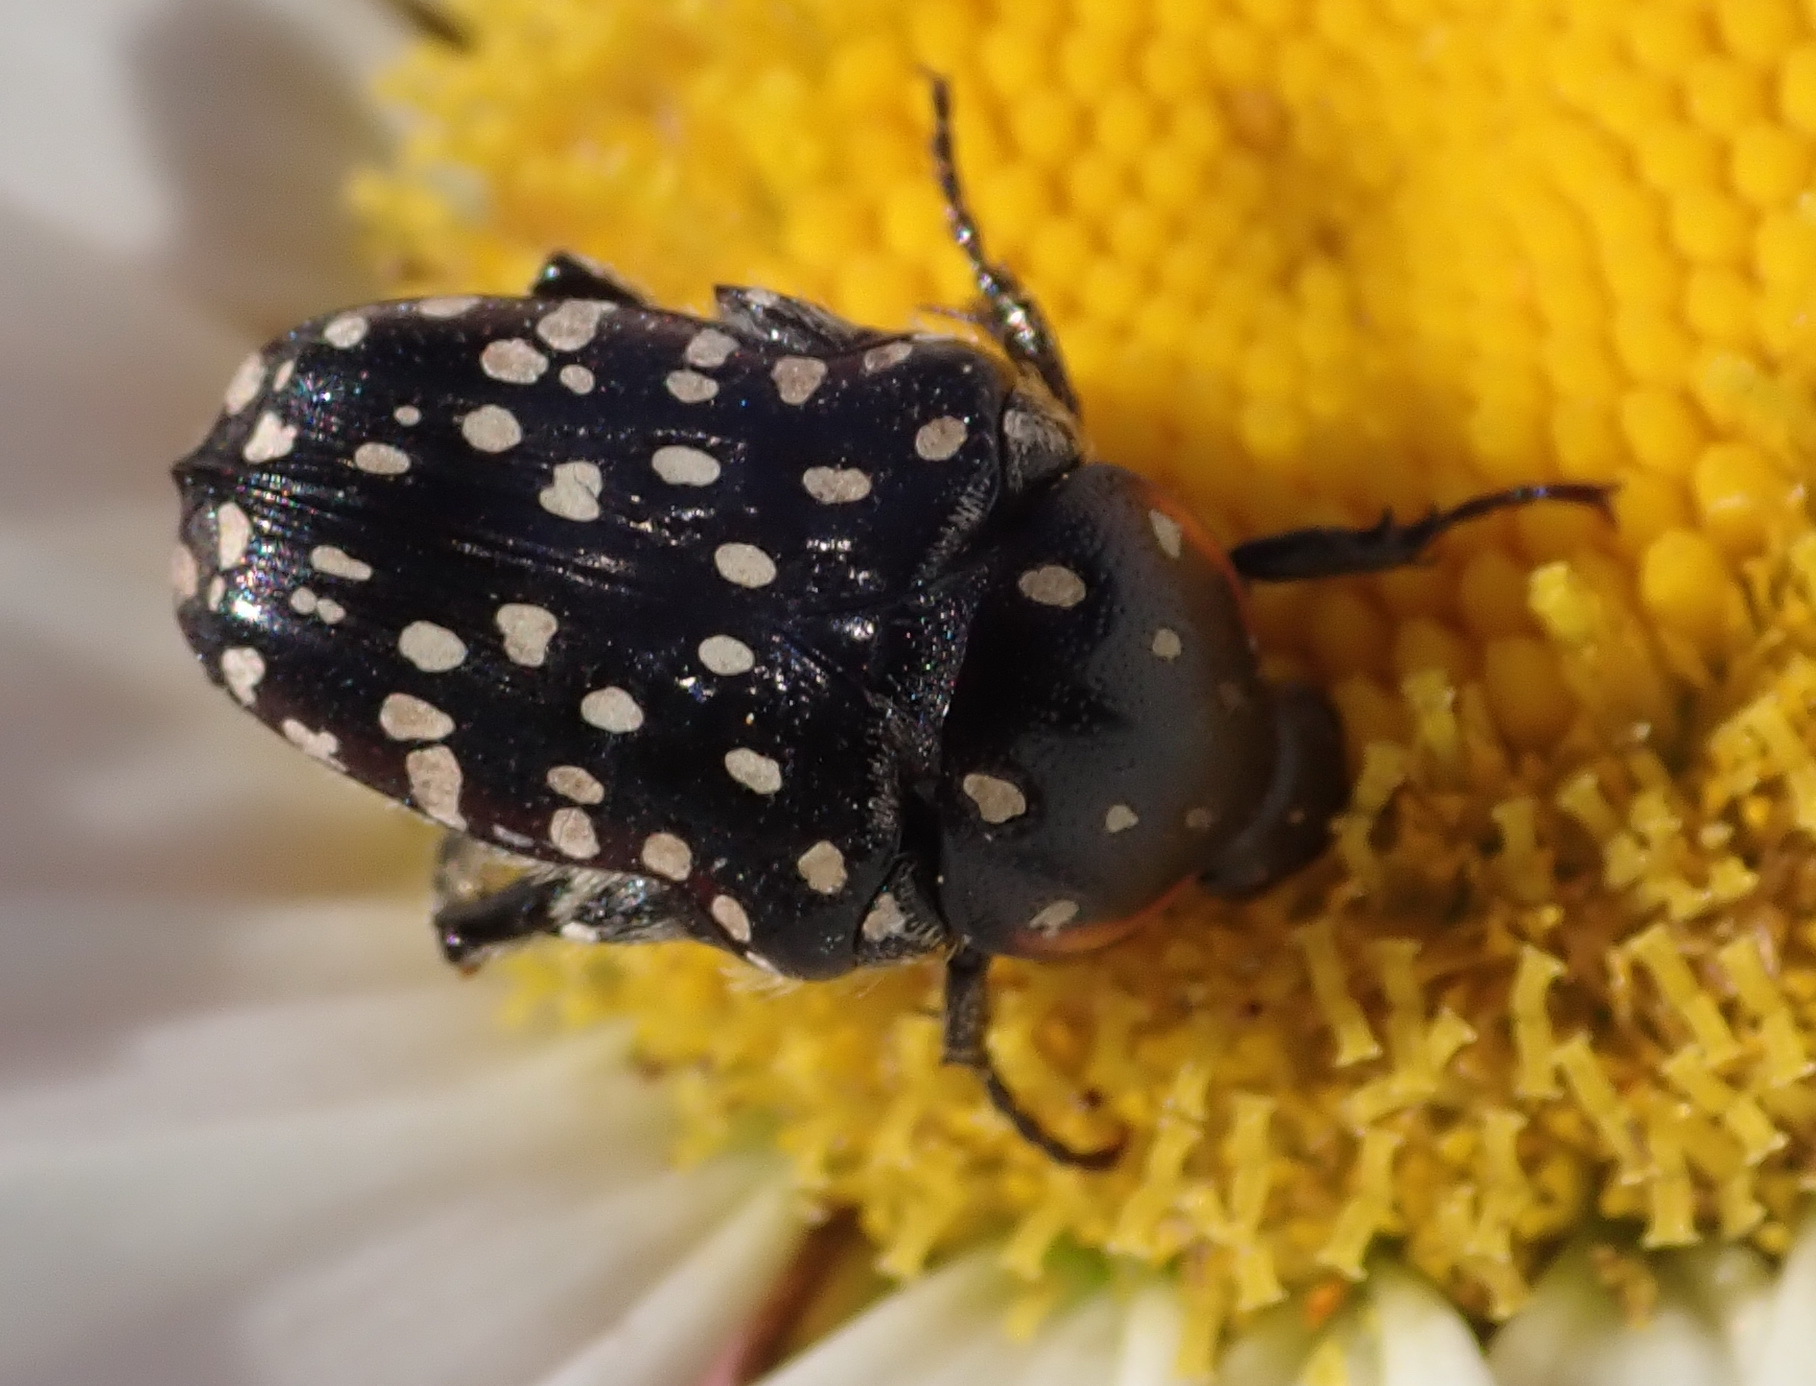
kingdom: Animalia
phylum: Arthropoda
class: Insecta
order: Coleoptera
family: Scarabaeidae
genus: Oxythyrea
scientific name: Oxythyrea
